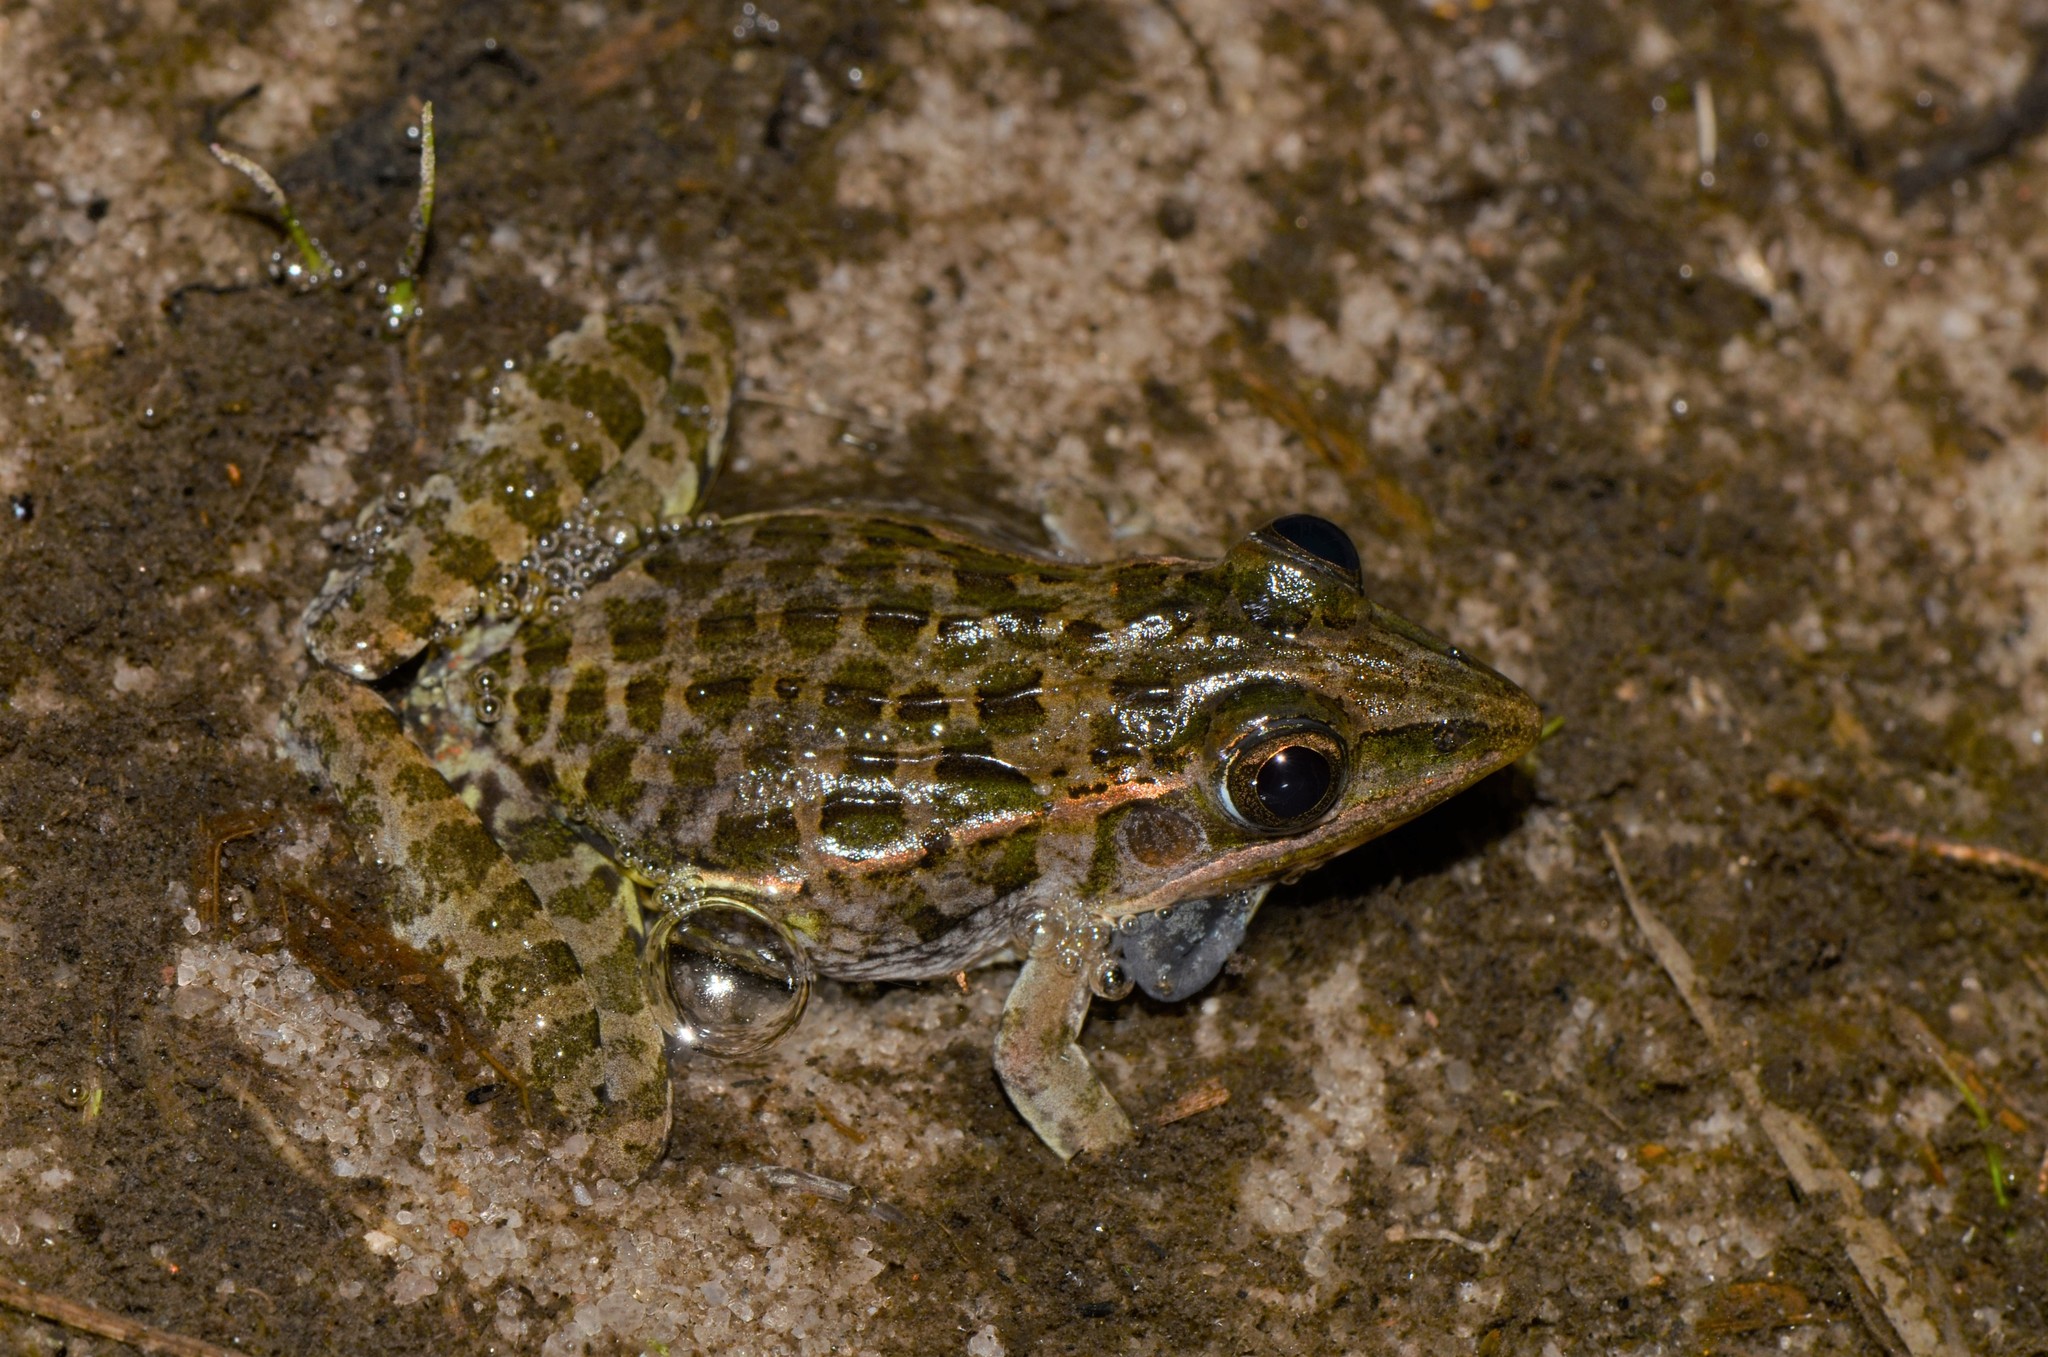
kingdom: Animalia
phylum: Chordata
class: Amphibia
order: Anura
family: Ptychadenidae
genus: Ptychadena
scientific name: Ptychadena taenioscelis
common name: Lukula grassland frog
